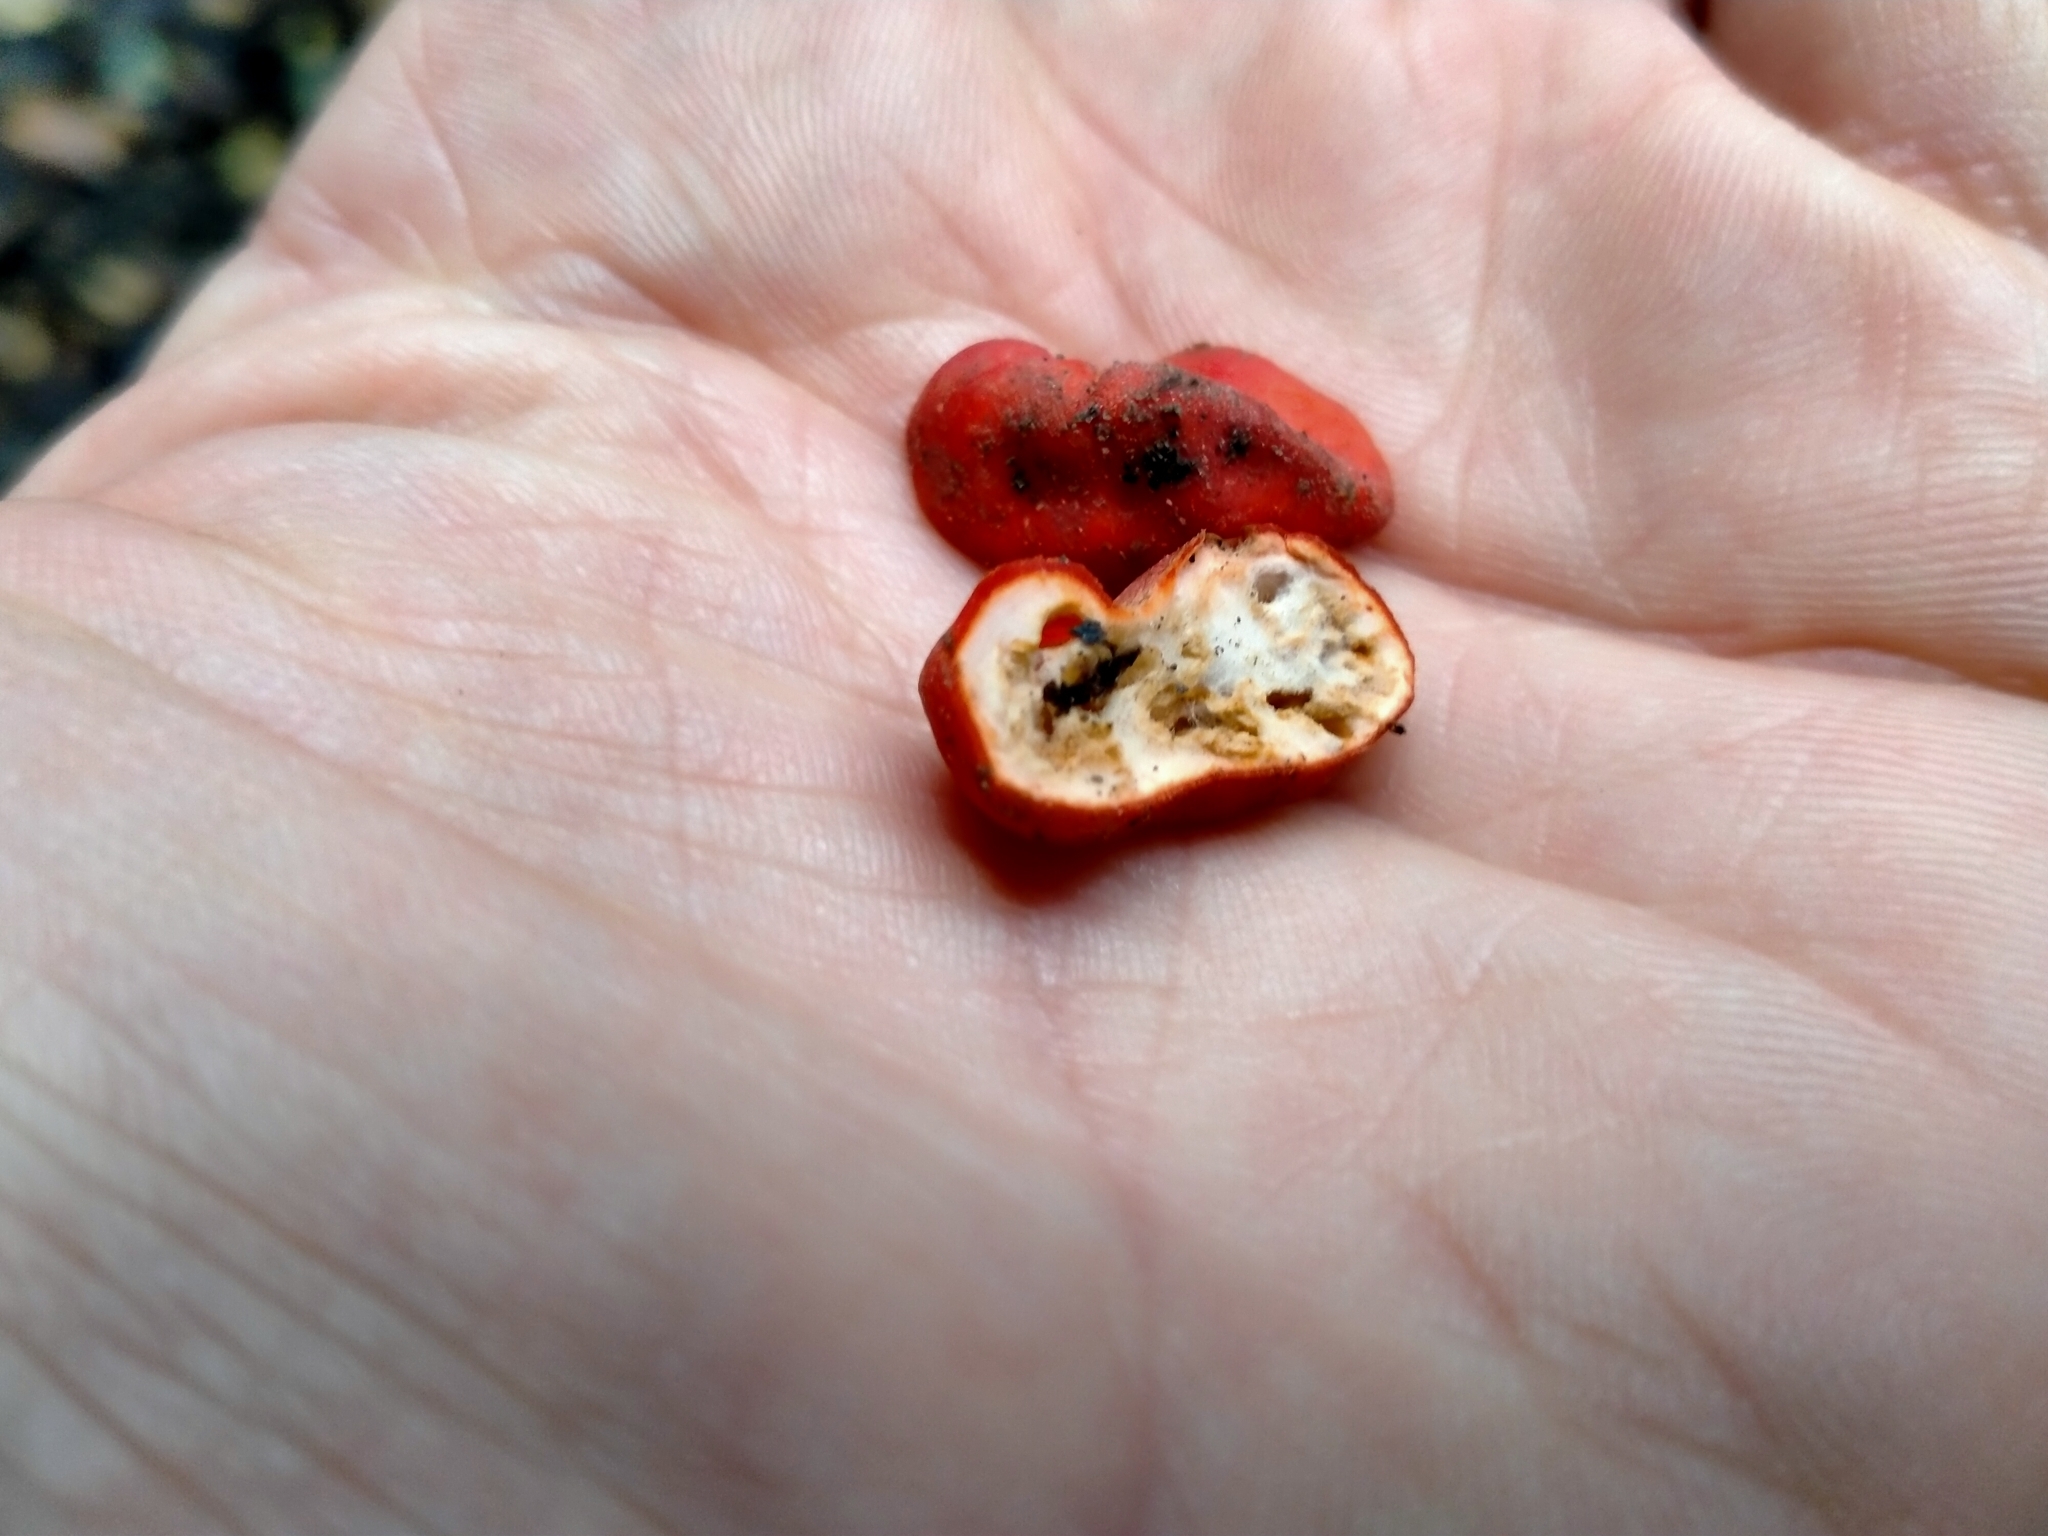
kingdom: Fungi
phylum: Ascomycota
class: Pezizomycetes
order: Pezizales
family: Pyronemataceae
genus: Paurocotylis
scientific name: Paurocotylis pila
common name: Scarlet berry truffle
